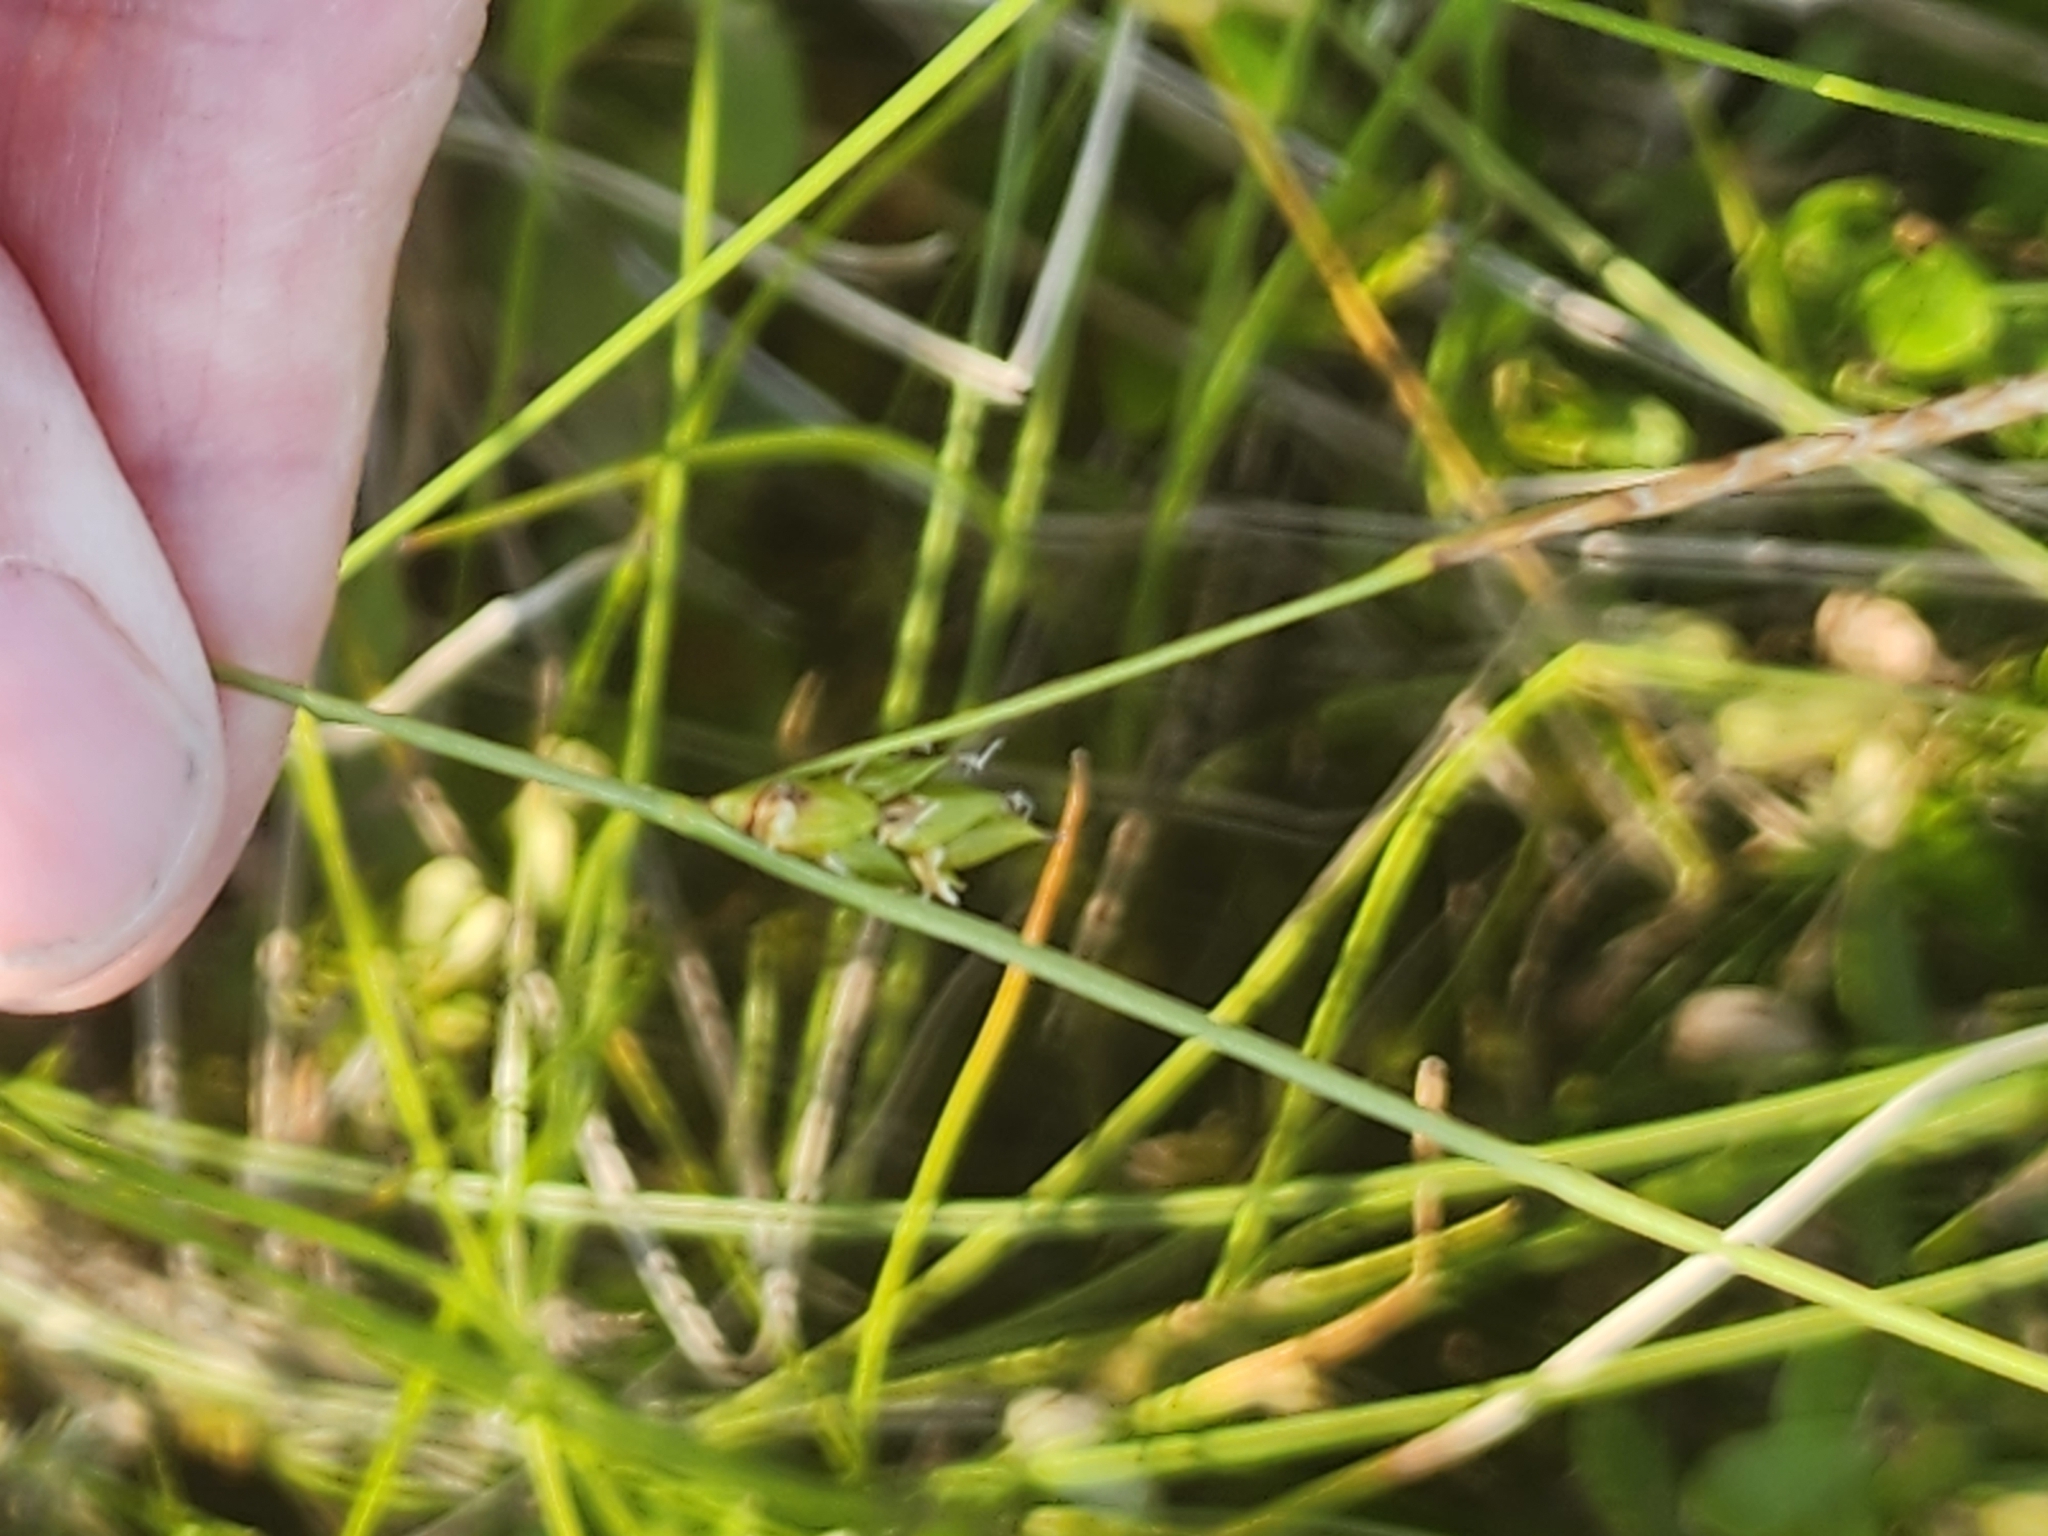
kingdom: Plantae
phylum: Tracheophyta
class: Liliopsida
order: Poales
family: Cyperaceae
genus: Carex
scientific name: Carex oligosperma
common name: Few-seed sedge
